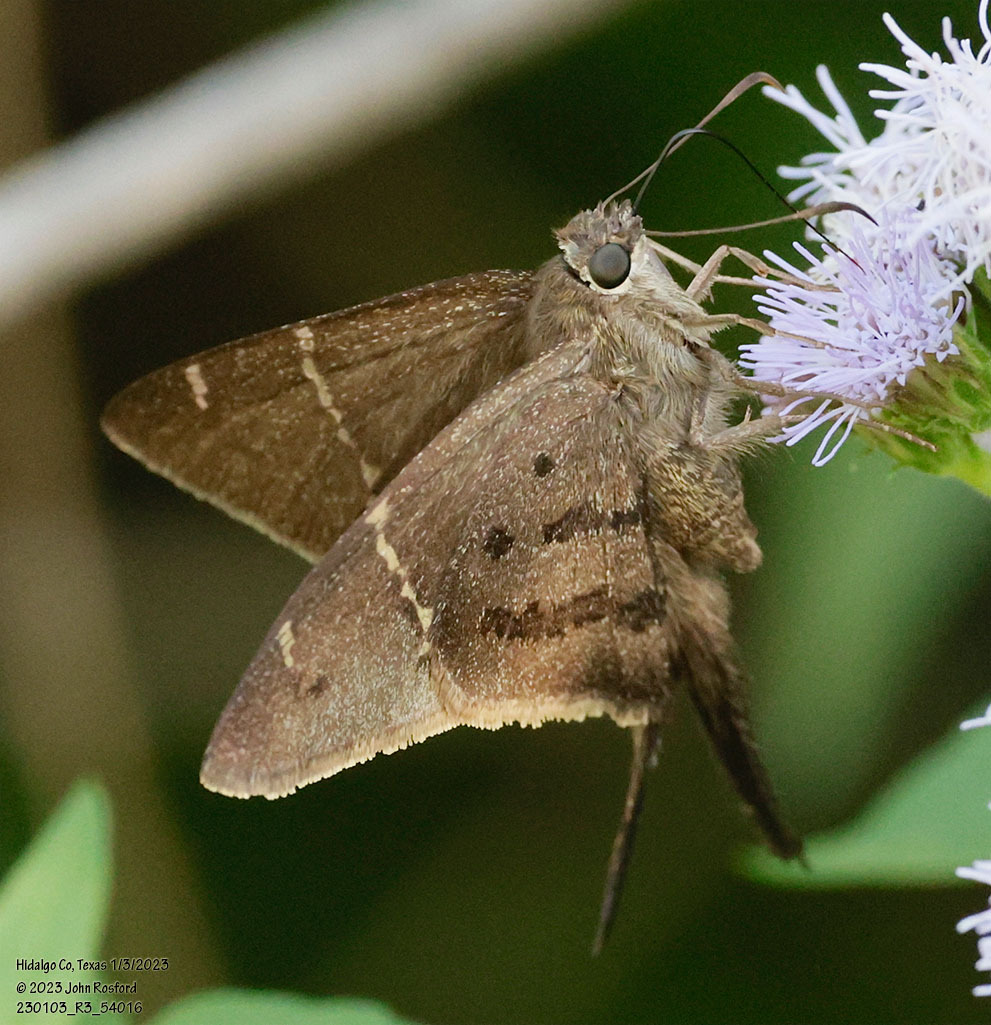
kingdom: Animalia
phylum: Arthropoda
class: Insecta
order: Lepidoptera
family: Hesperiidae
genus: Urbanus
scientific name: Urbanus procne
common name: Brown longtail
